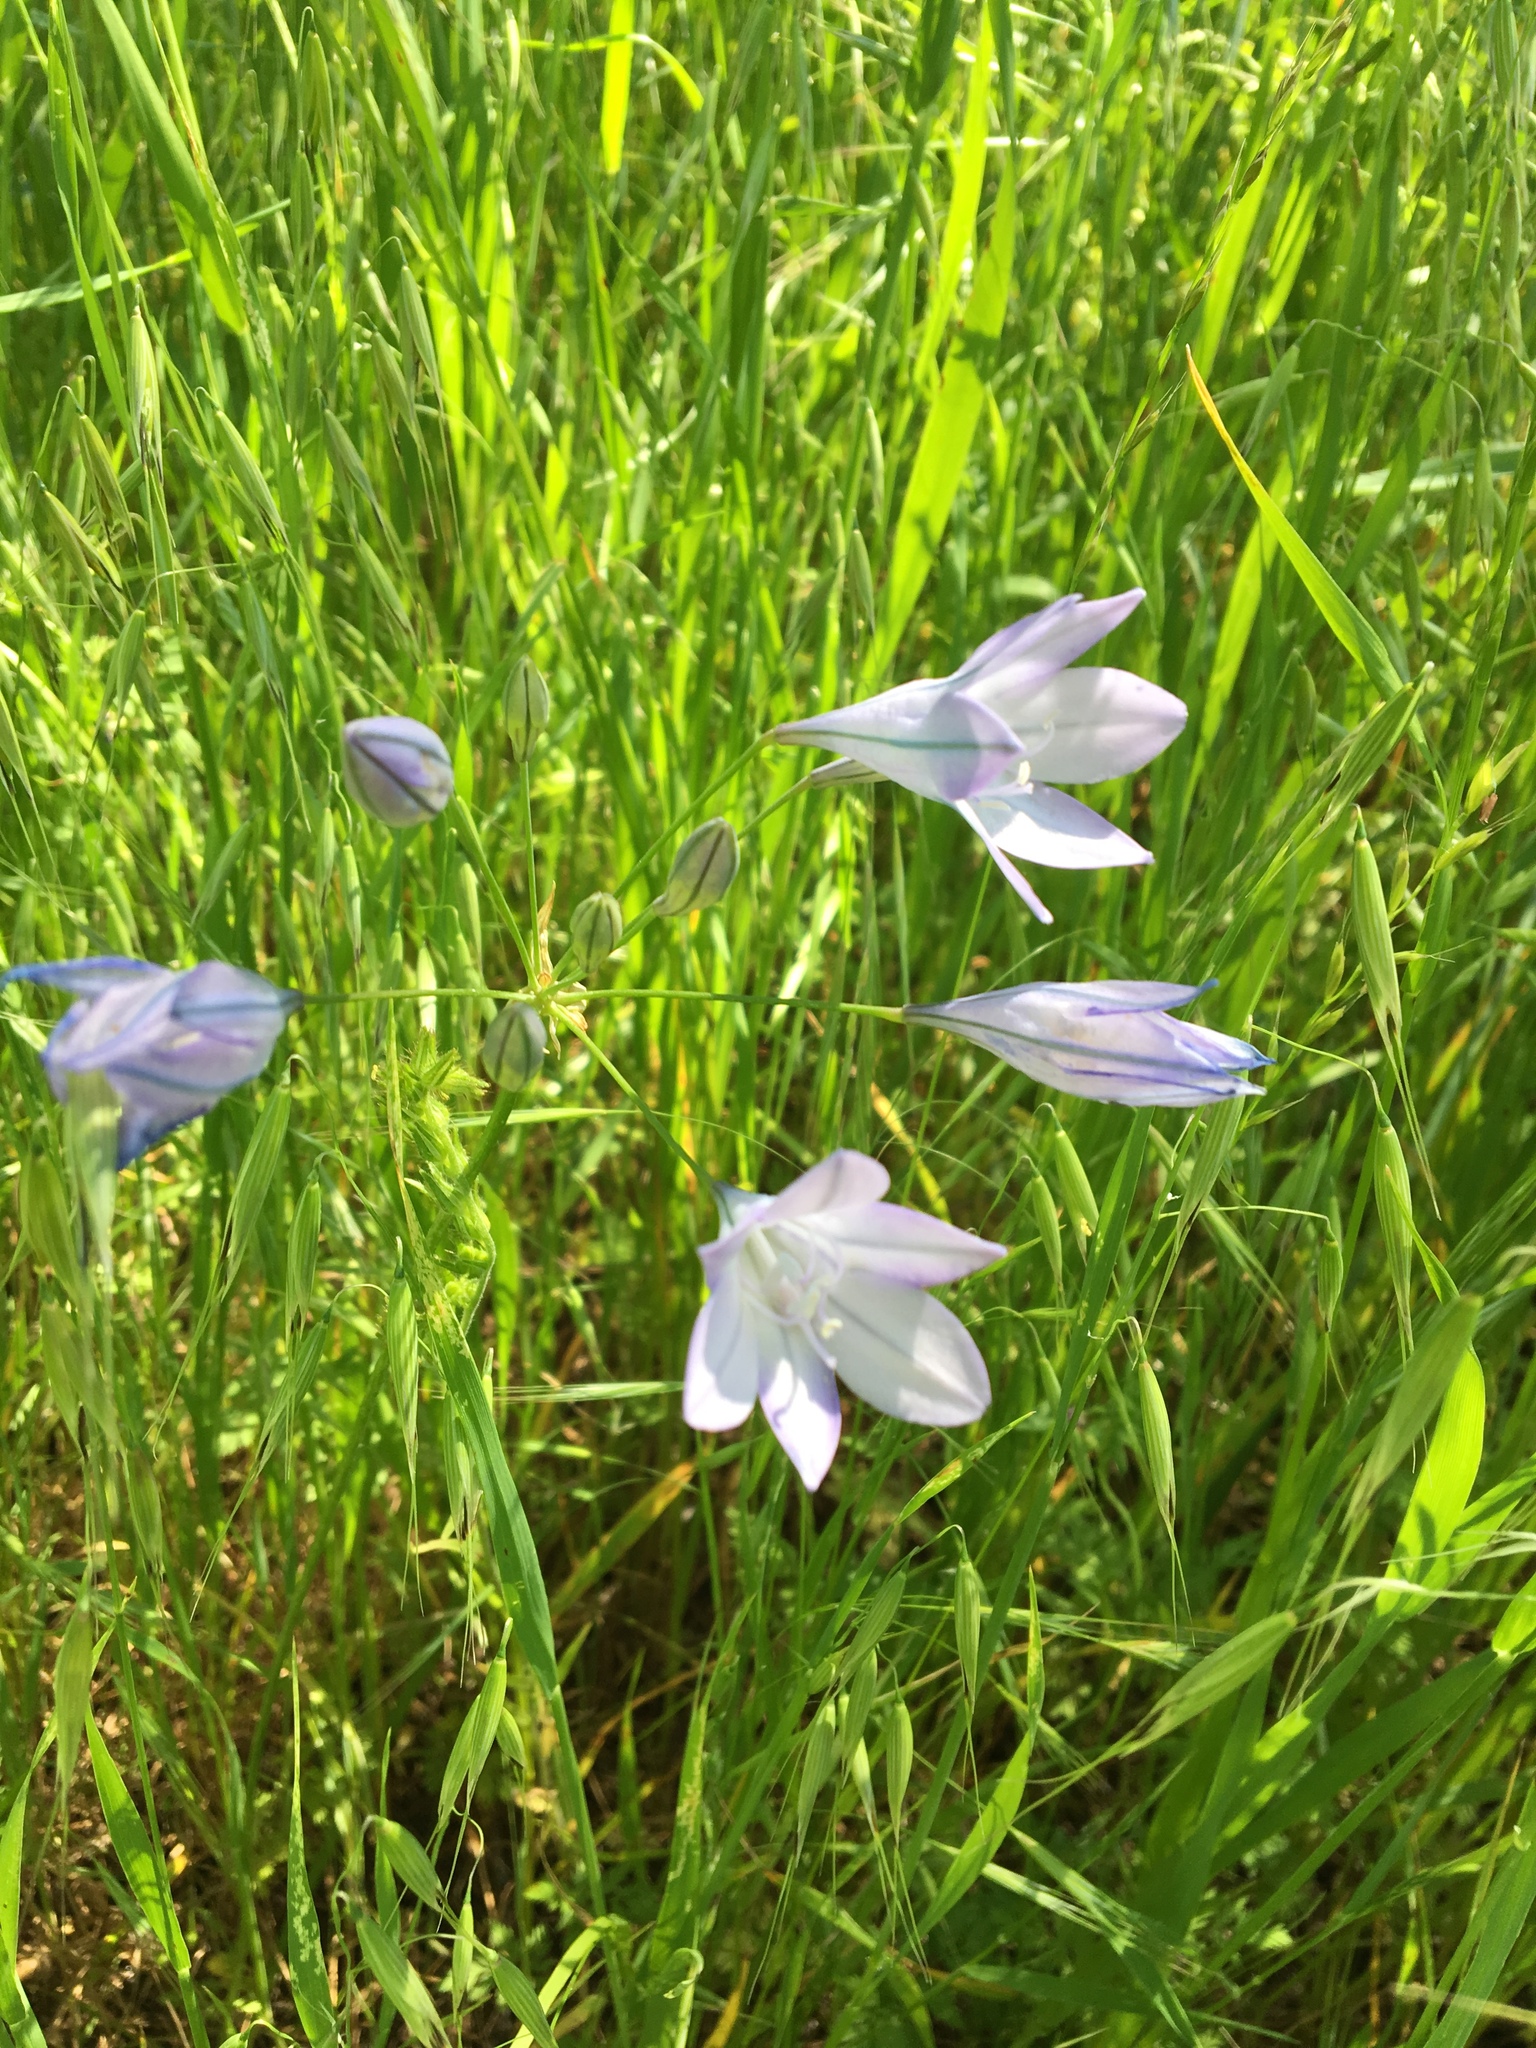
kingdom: Plantae
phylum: Tracheophyta
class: Liliopsida
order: Asparagales
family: Asparagaceae
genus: Triteleia
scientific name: Triteleia laxa
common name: Triplet-lily
